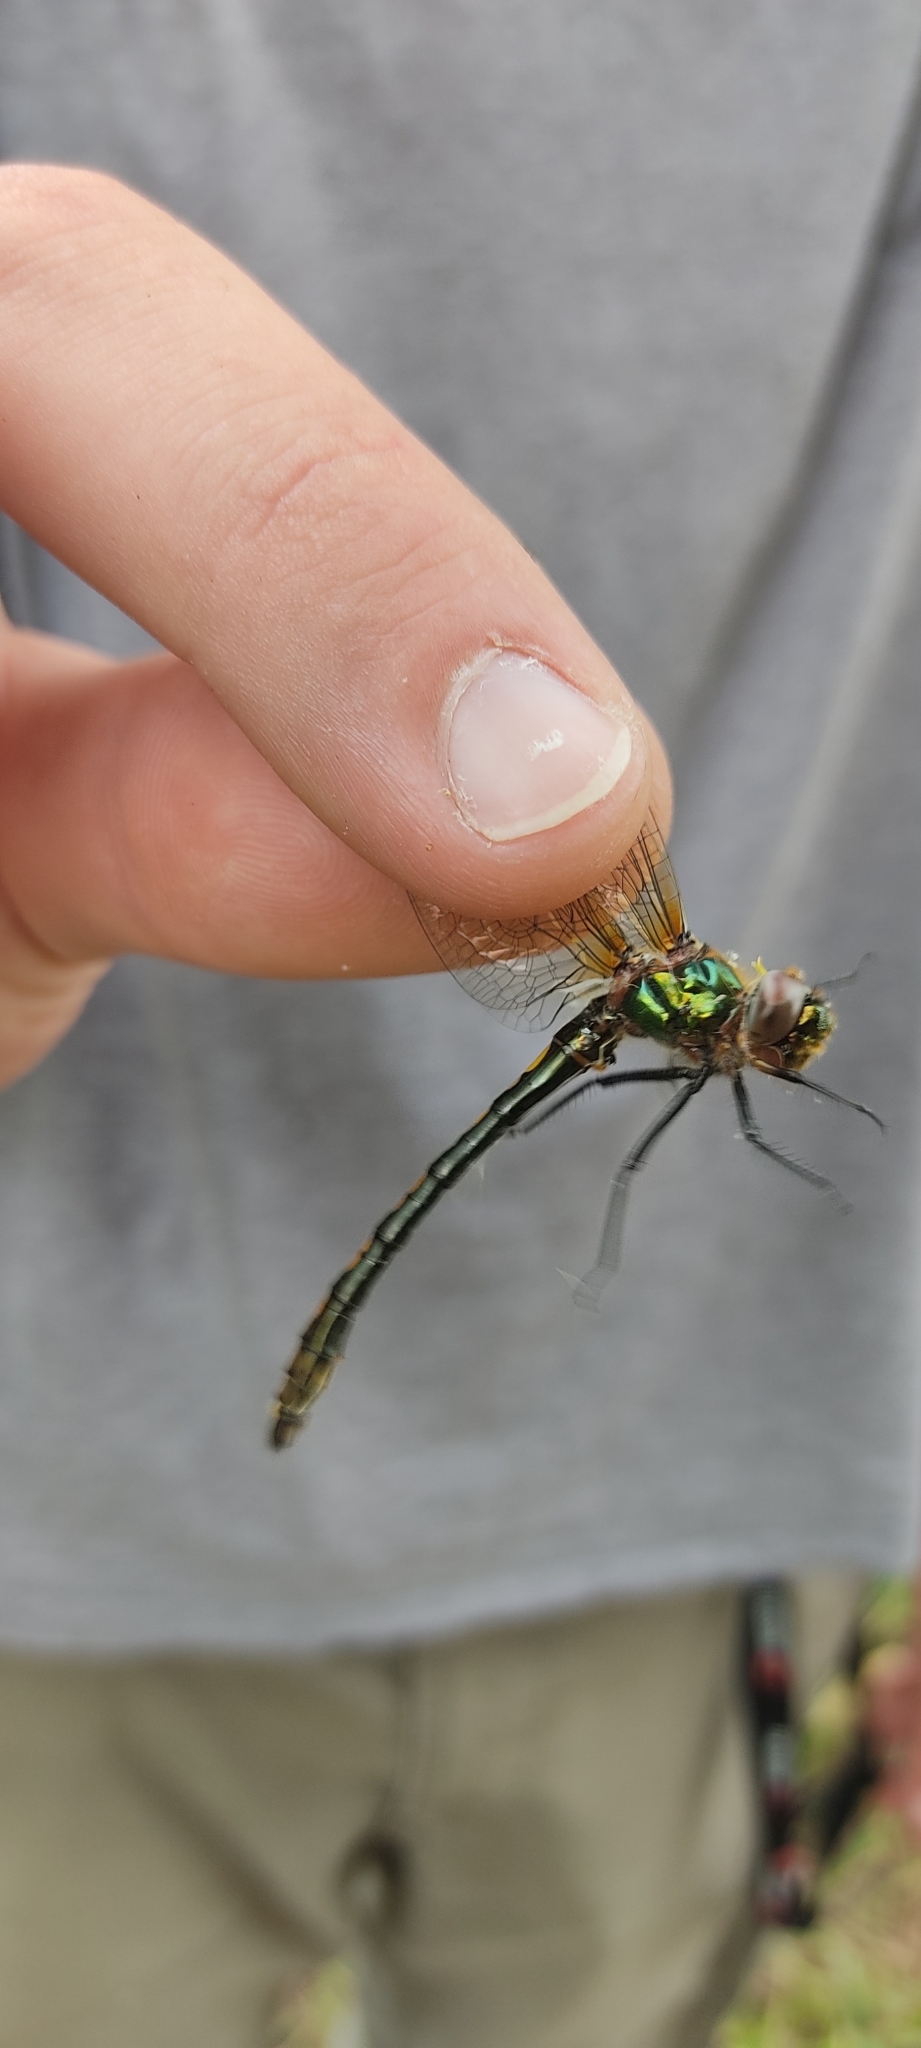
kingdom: Animalia
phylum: Arthropoda
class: Insecta
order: Odonata
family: Corduliidae
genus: Oxygastra
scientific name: Oxygastra curtisii
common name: Orange-spotted emerald
